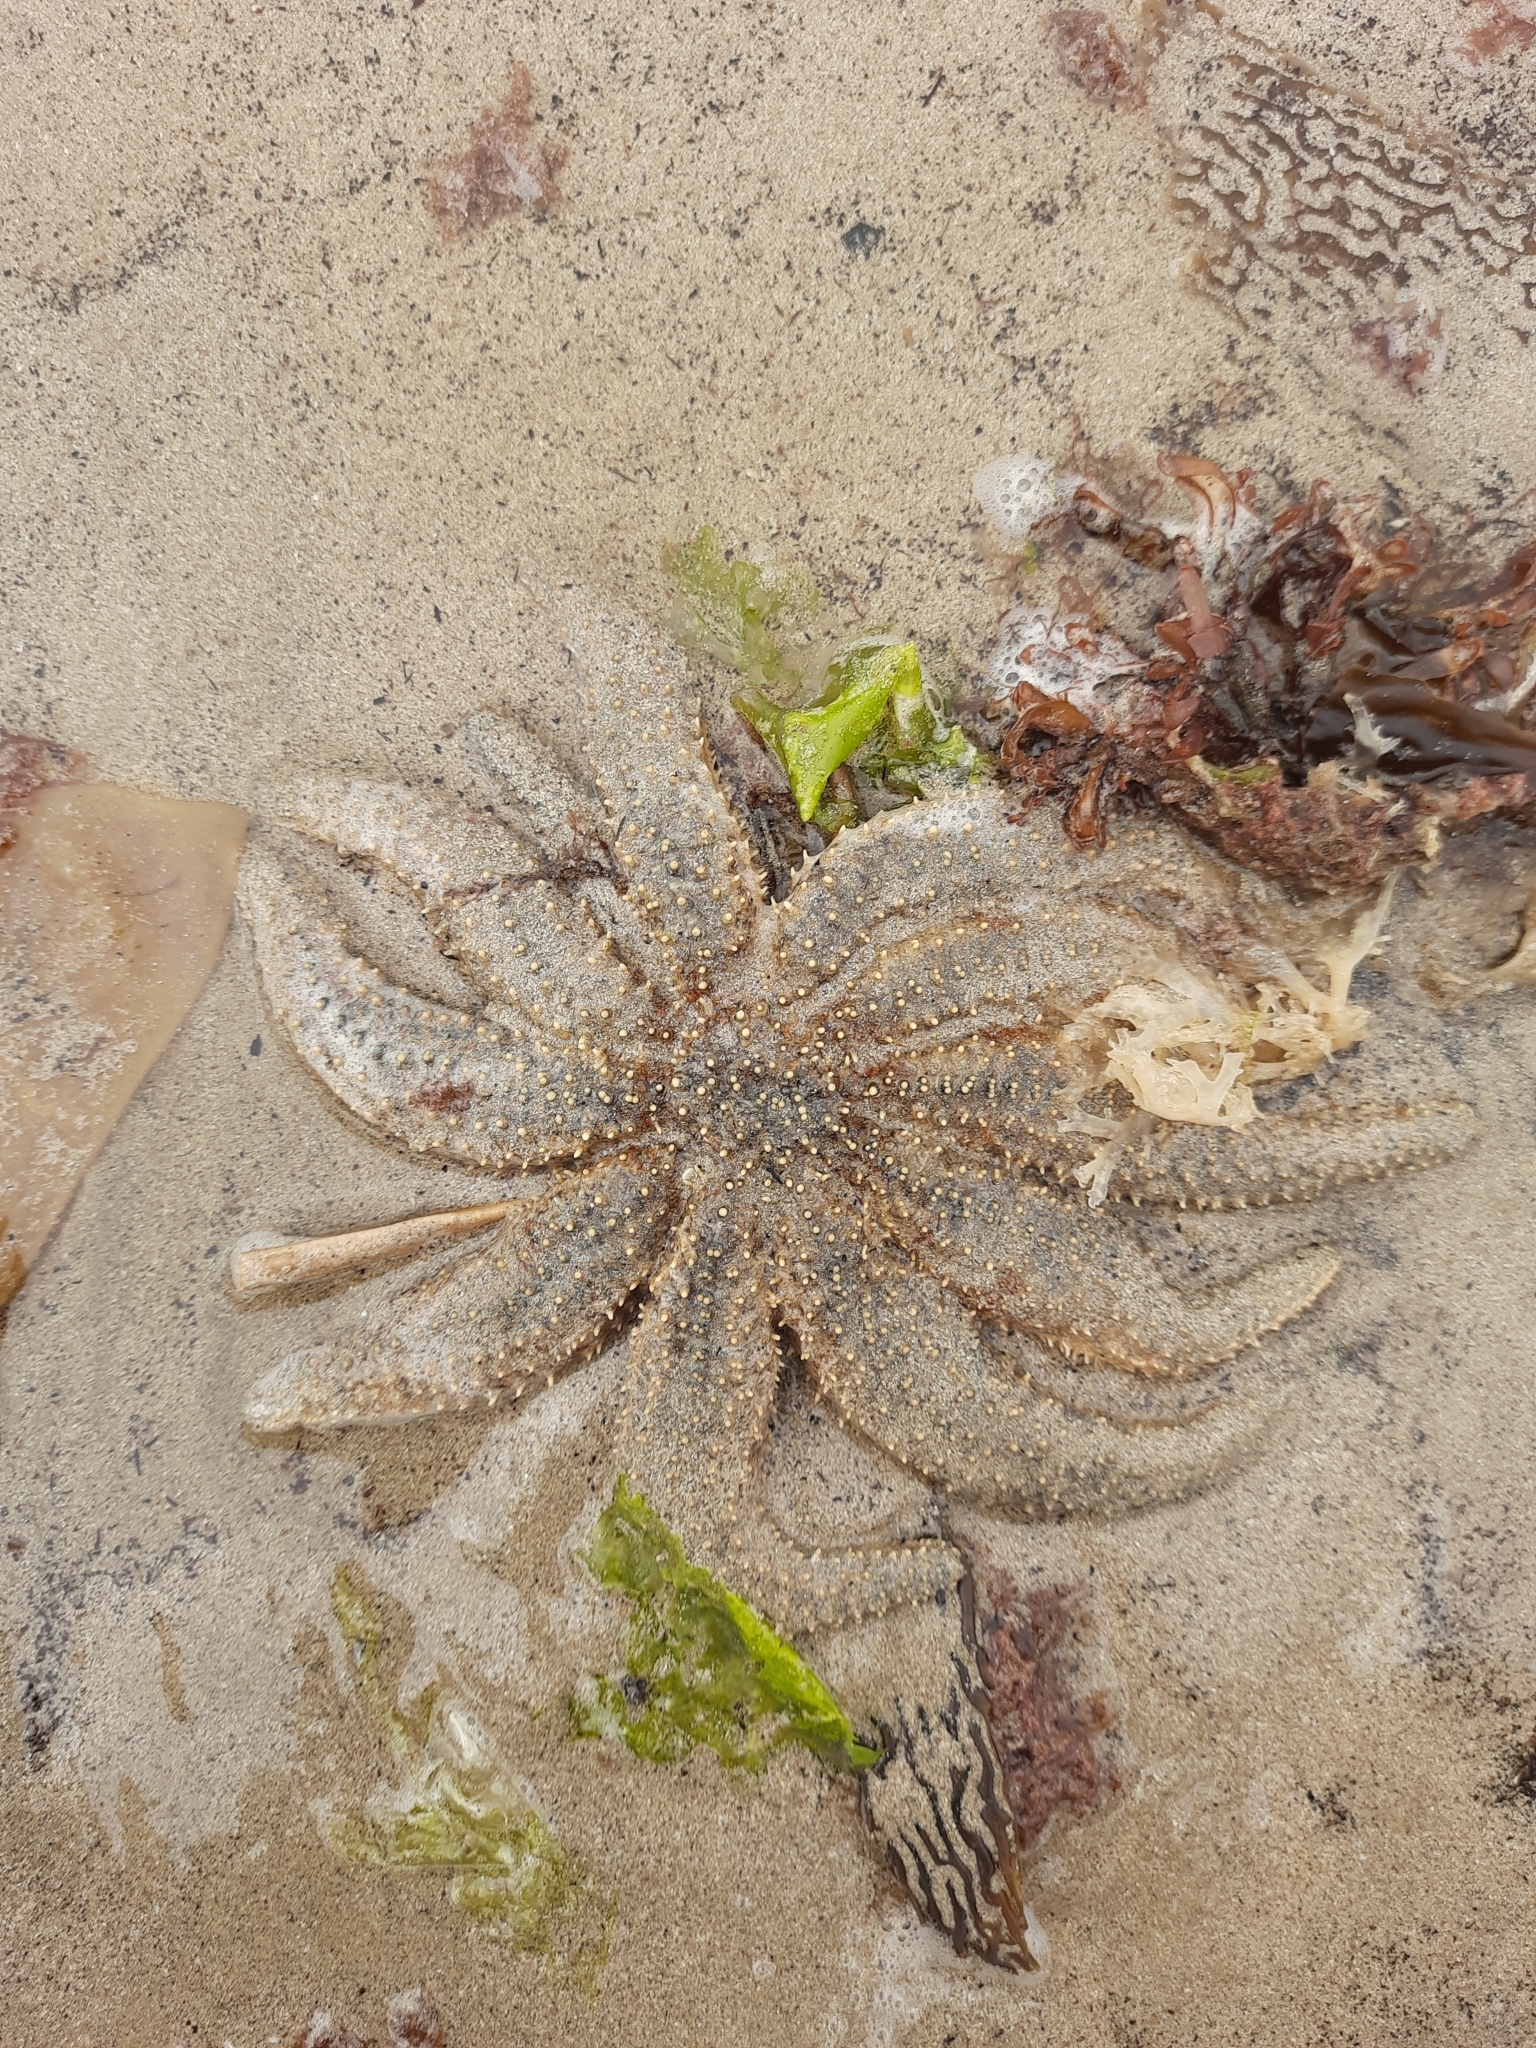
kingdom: Animalia
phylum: Echinodermata
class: Asteroidea
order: Forcipulatida
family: Asteriidae
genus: Coscinasterias
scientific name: Coscinasterias muricata
